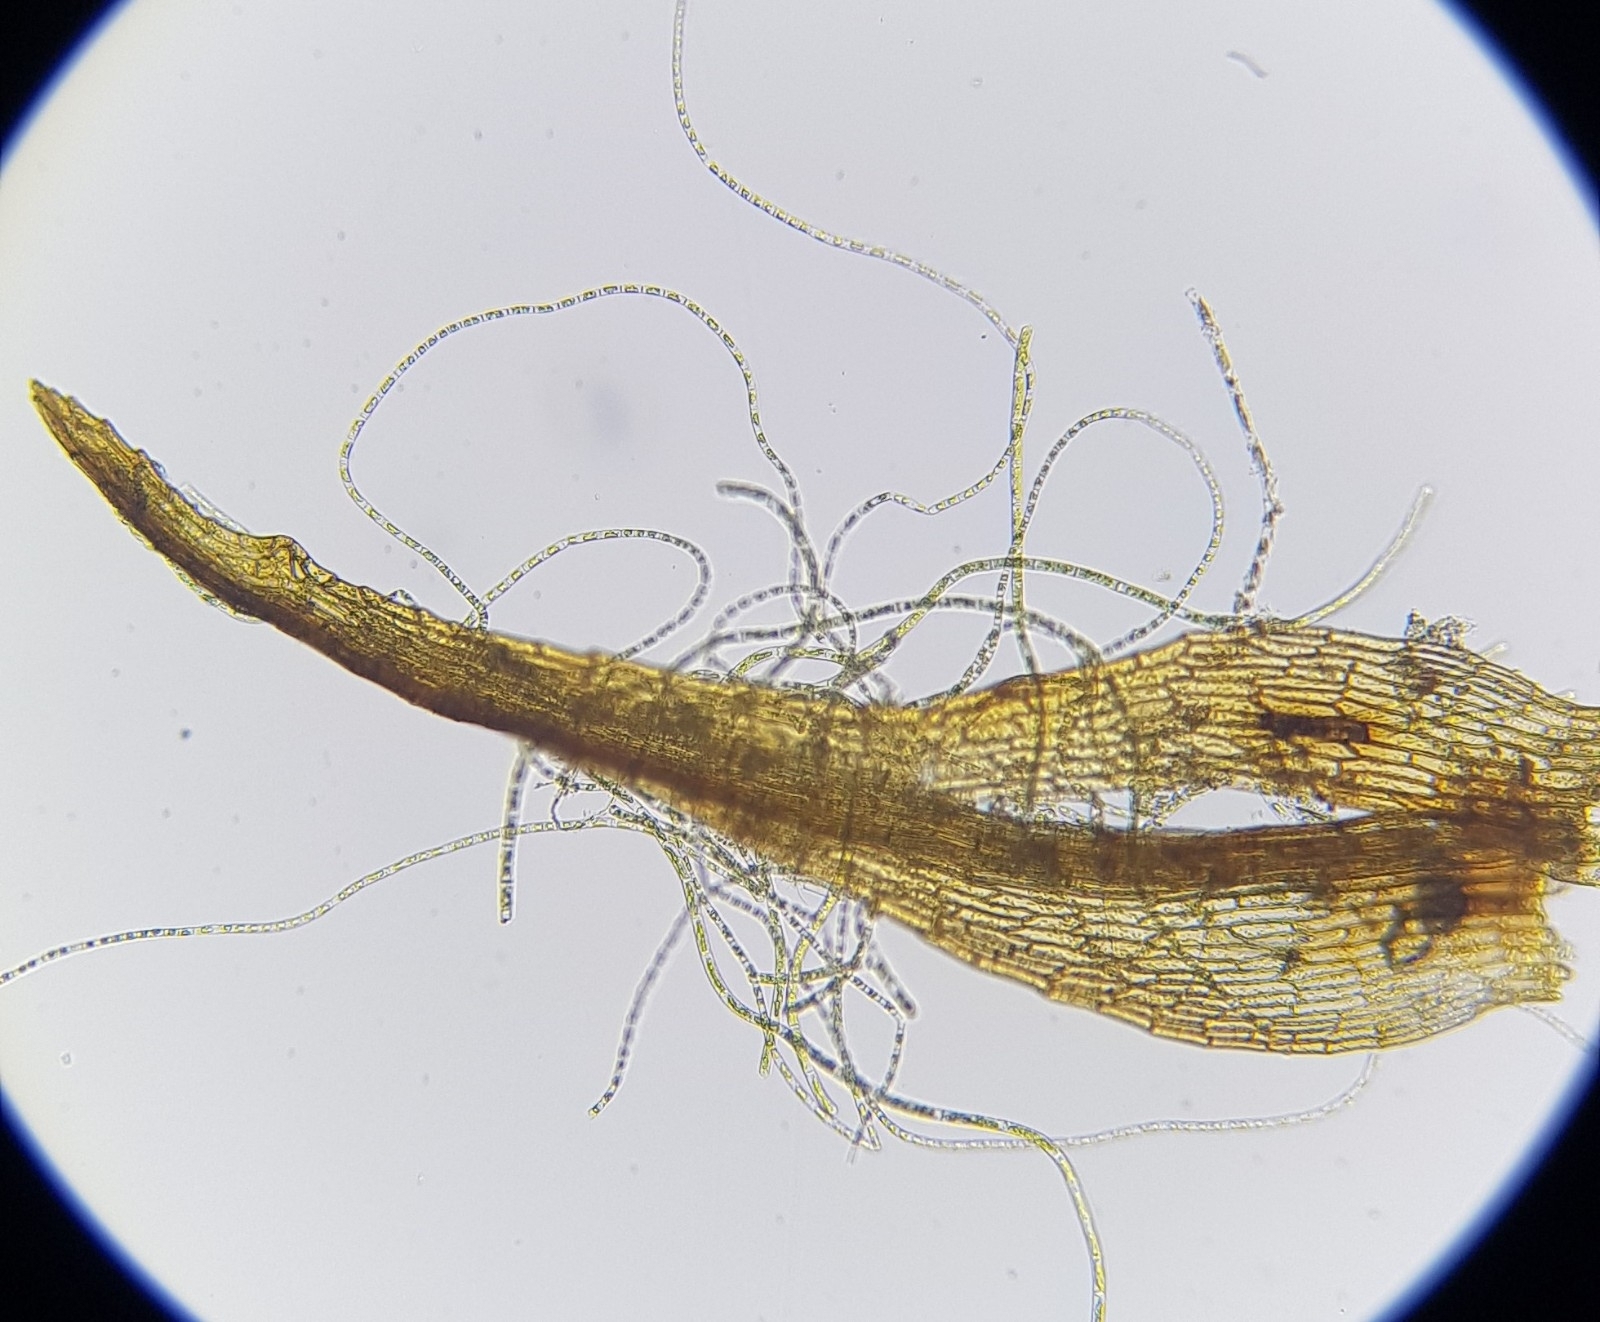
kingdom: Plantae
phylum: Bryophyta
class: Bryopsida
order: Dicranales
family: Dicranellaceae
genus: Dicranella
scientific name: Dicranella rufescens
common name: Red forklet moss
